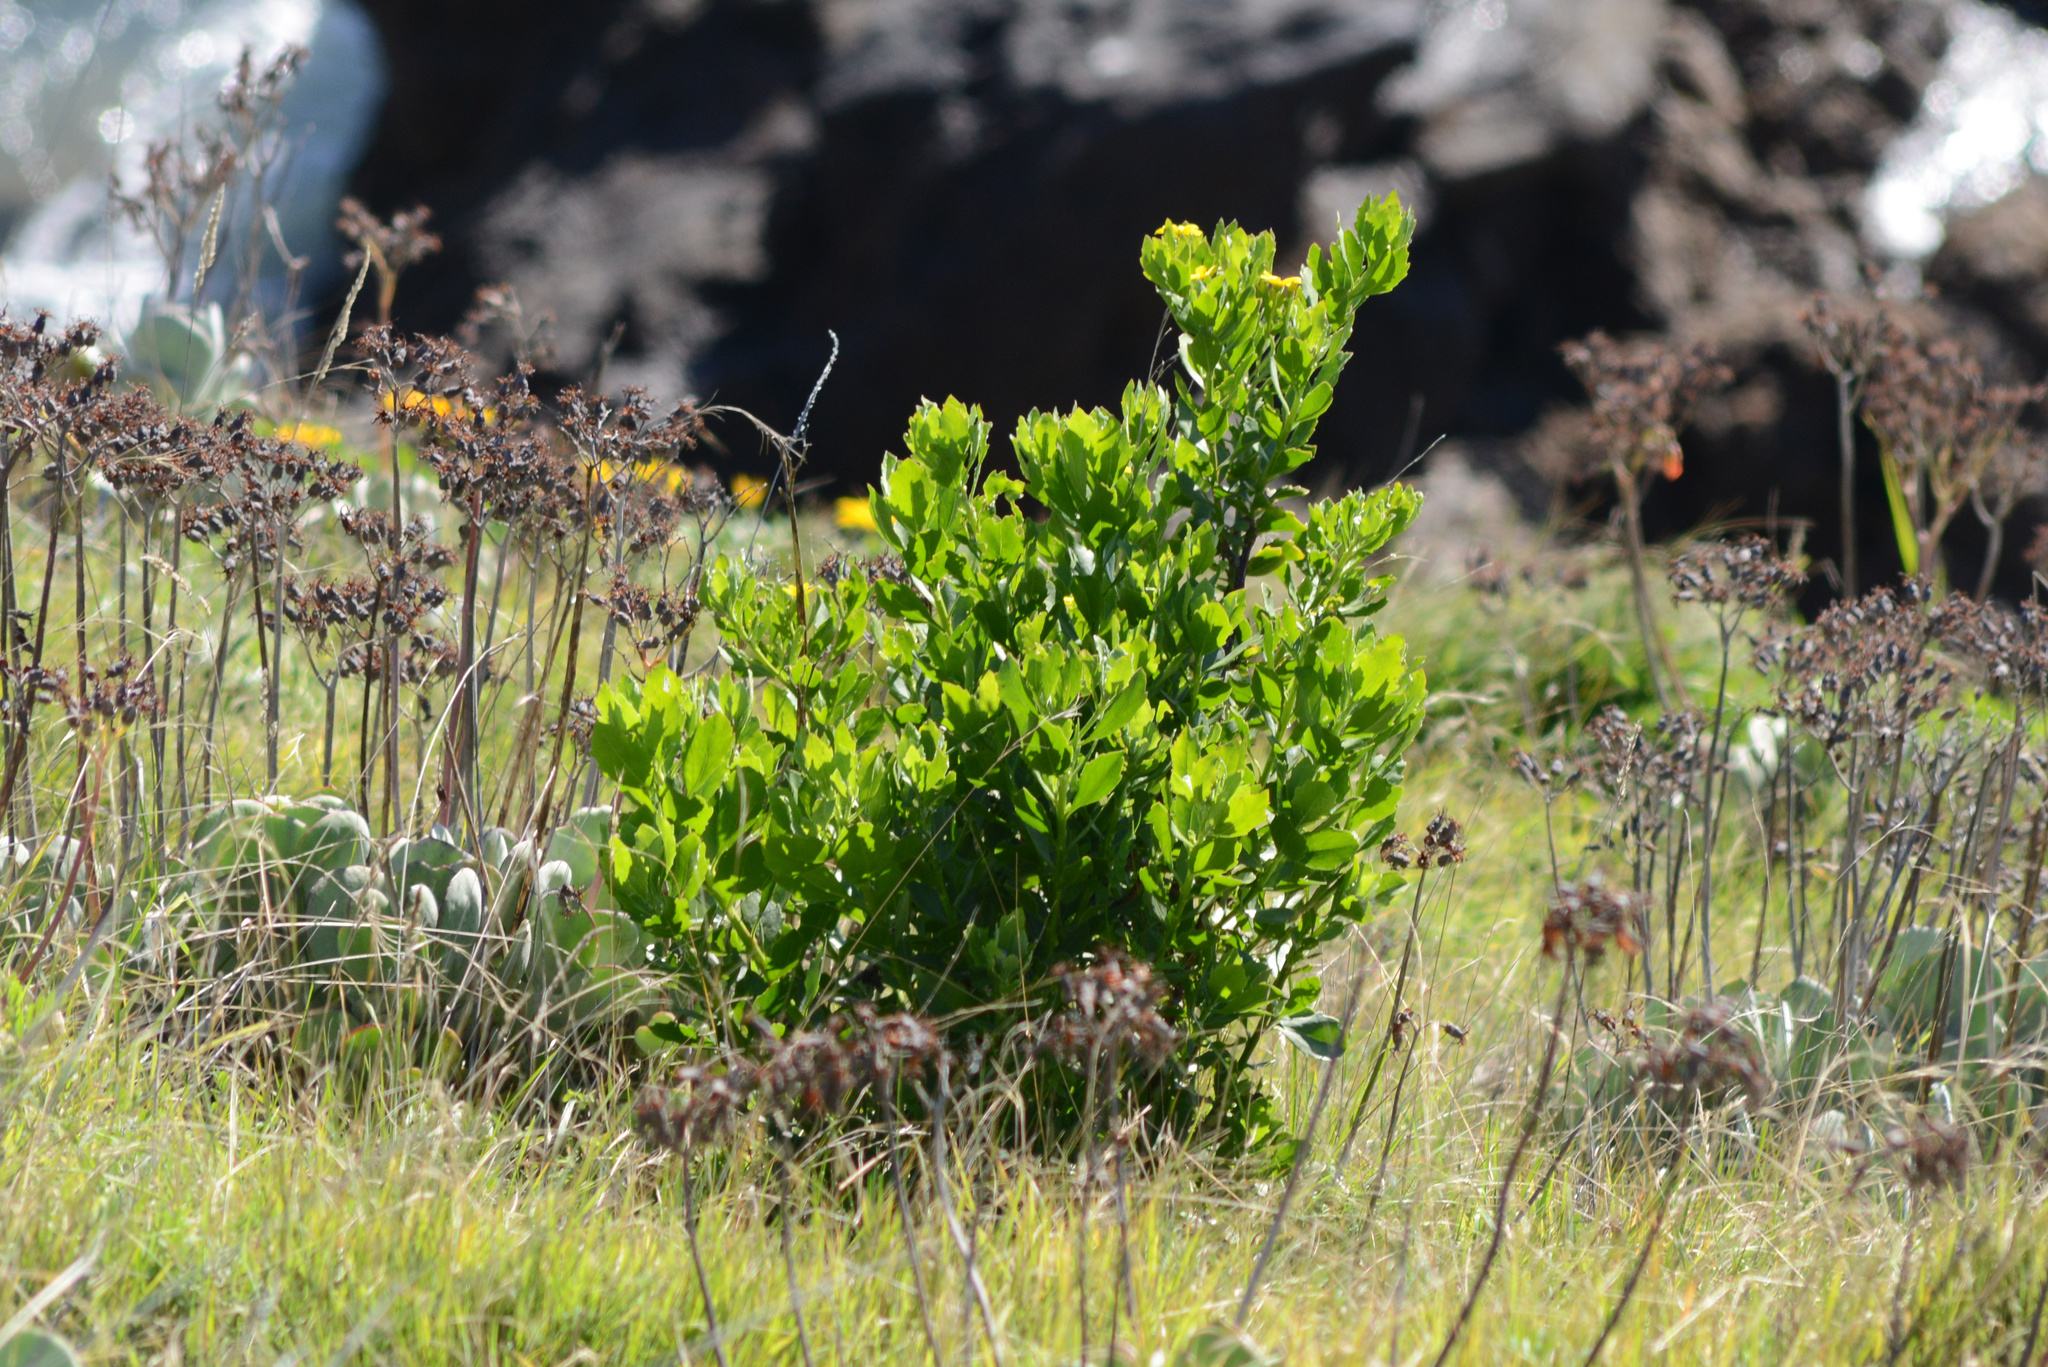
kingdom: Plantae
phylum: Tracheophyta
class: Magnoliopsida
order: Asterales
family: Asteraceae
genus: Osteospermum
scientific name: Osteospermum moniliferum
